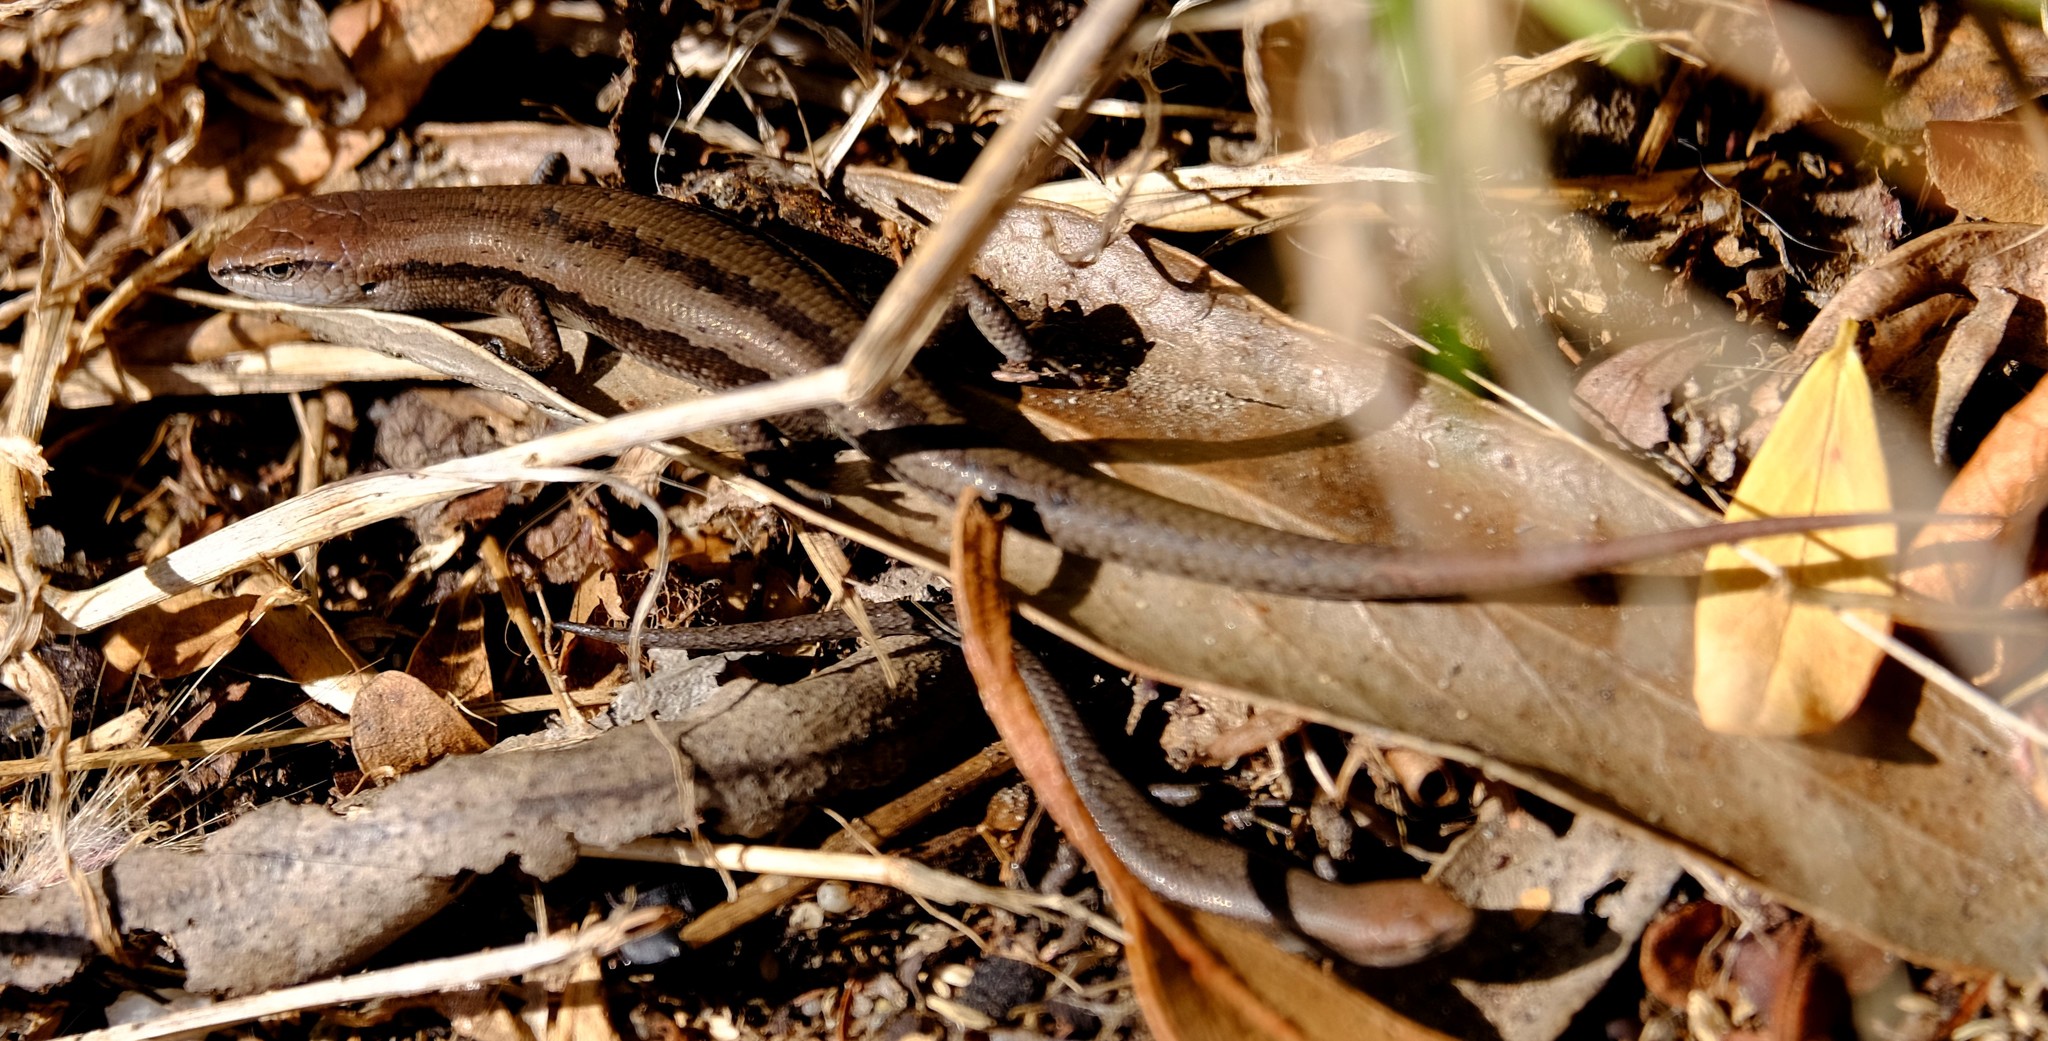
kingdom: Animalia
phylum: Chordata
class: Squamata
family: Scincidae
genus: Lampropholis
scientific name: Lampropholis guichenoti
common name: Garden skink
